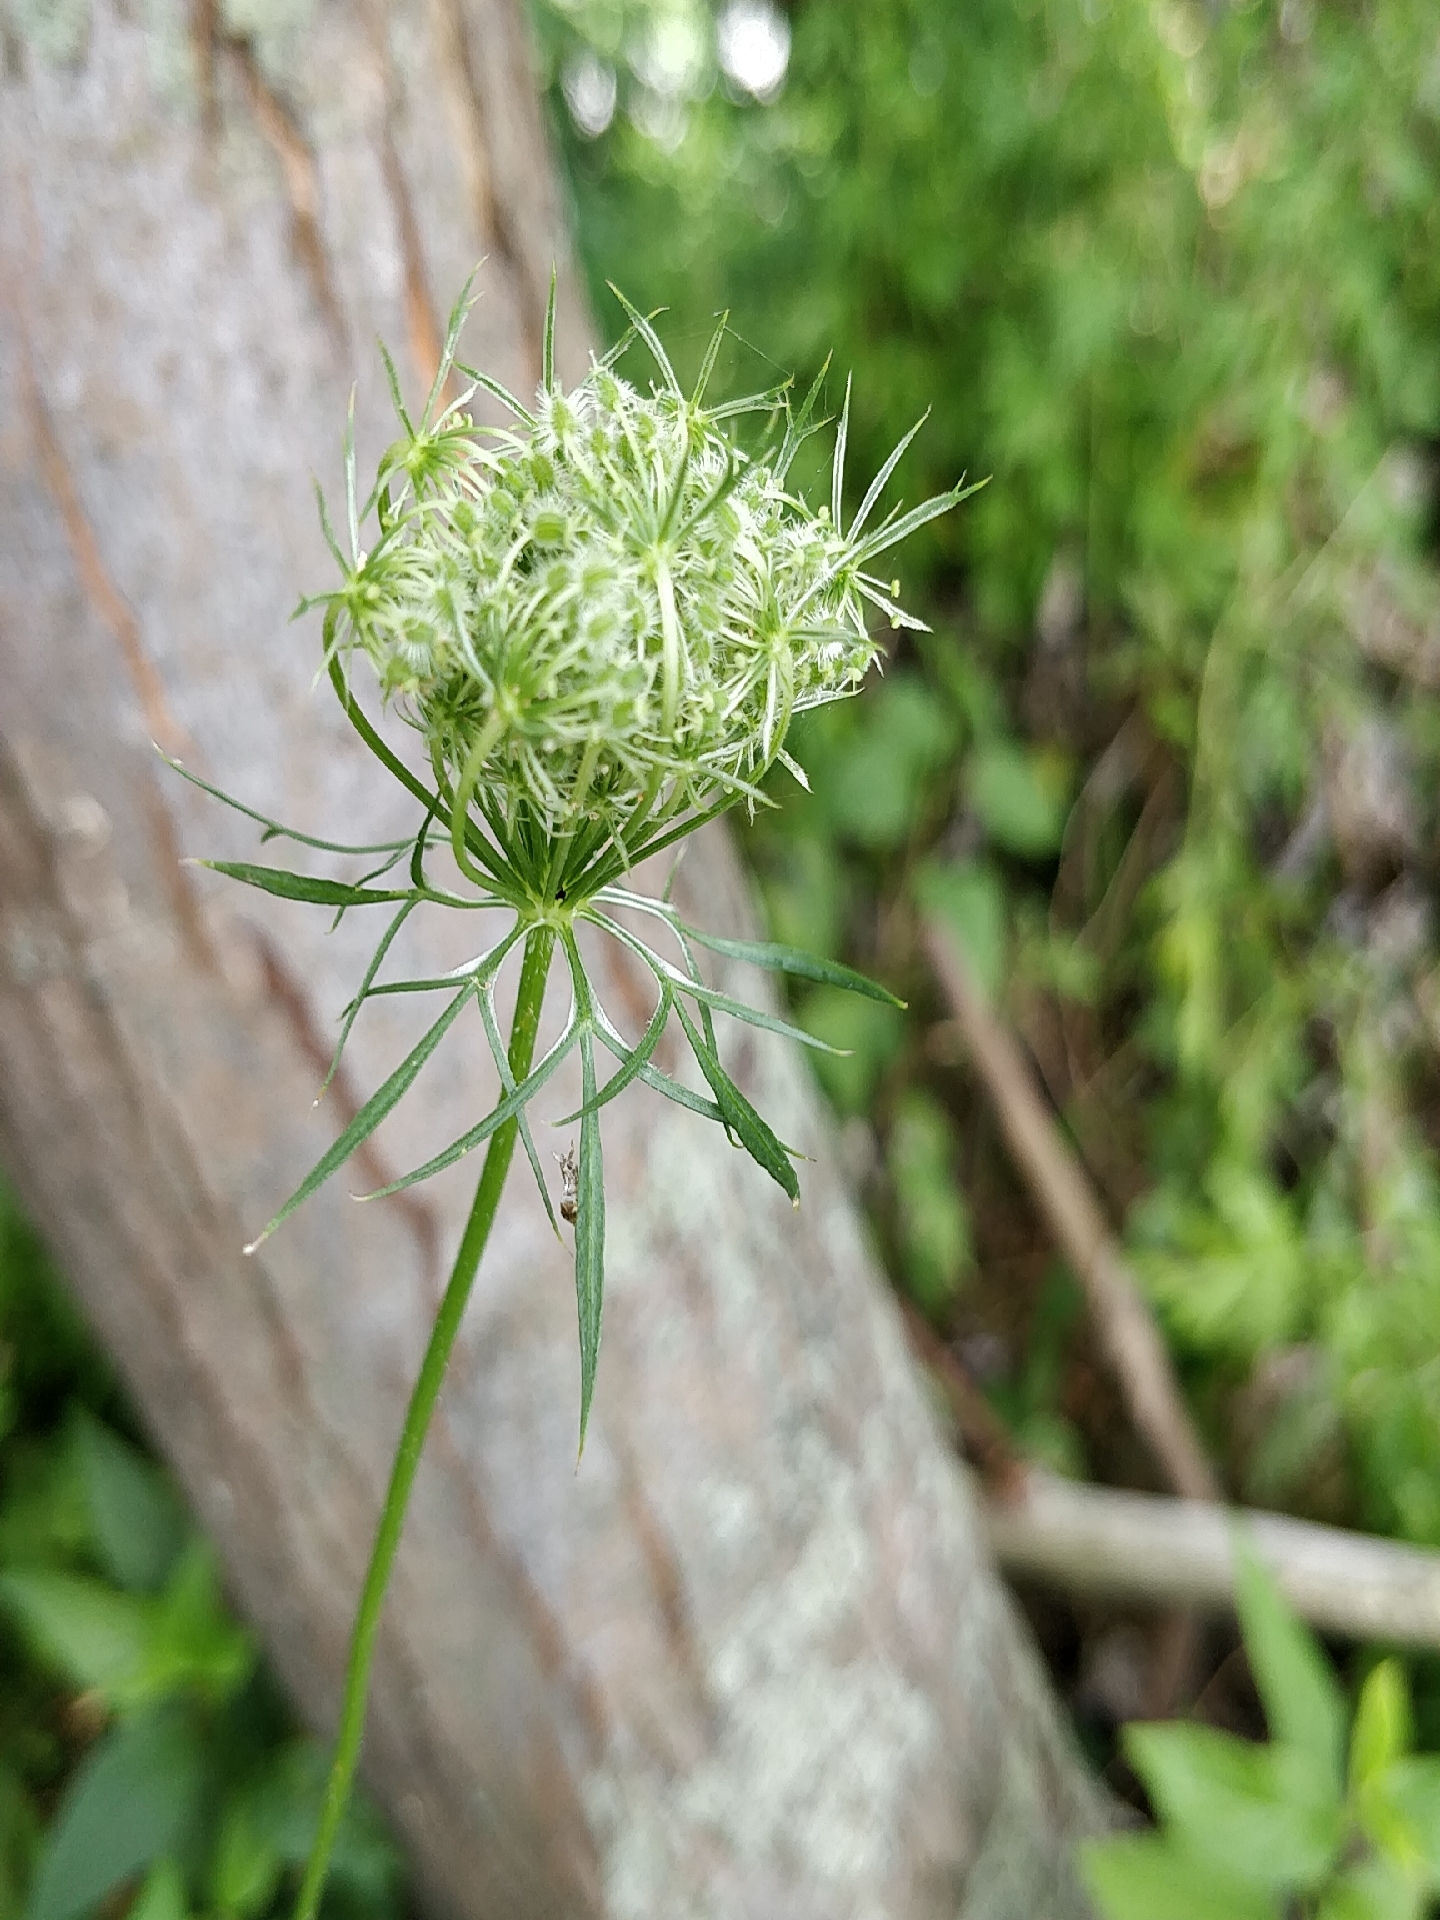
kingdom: Plantae
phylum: Tracheophyta
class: Magnoliopsida
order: Apiales
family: Apiaceae
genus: Daucus
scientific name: Daucus carota
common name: Wild carrot
